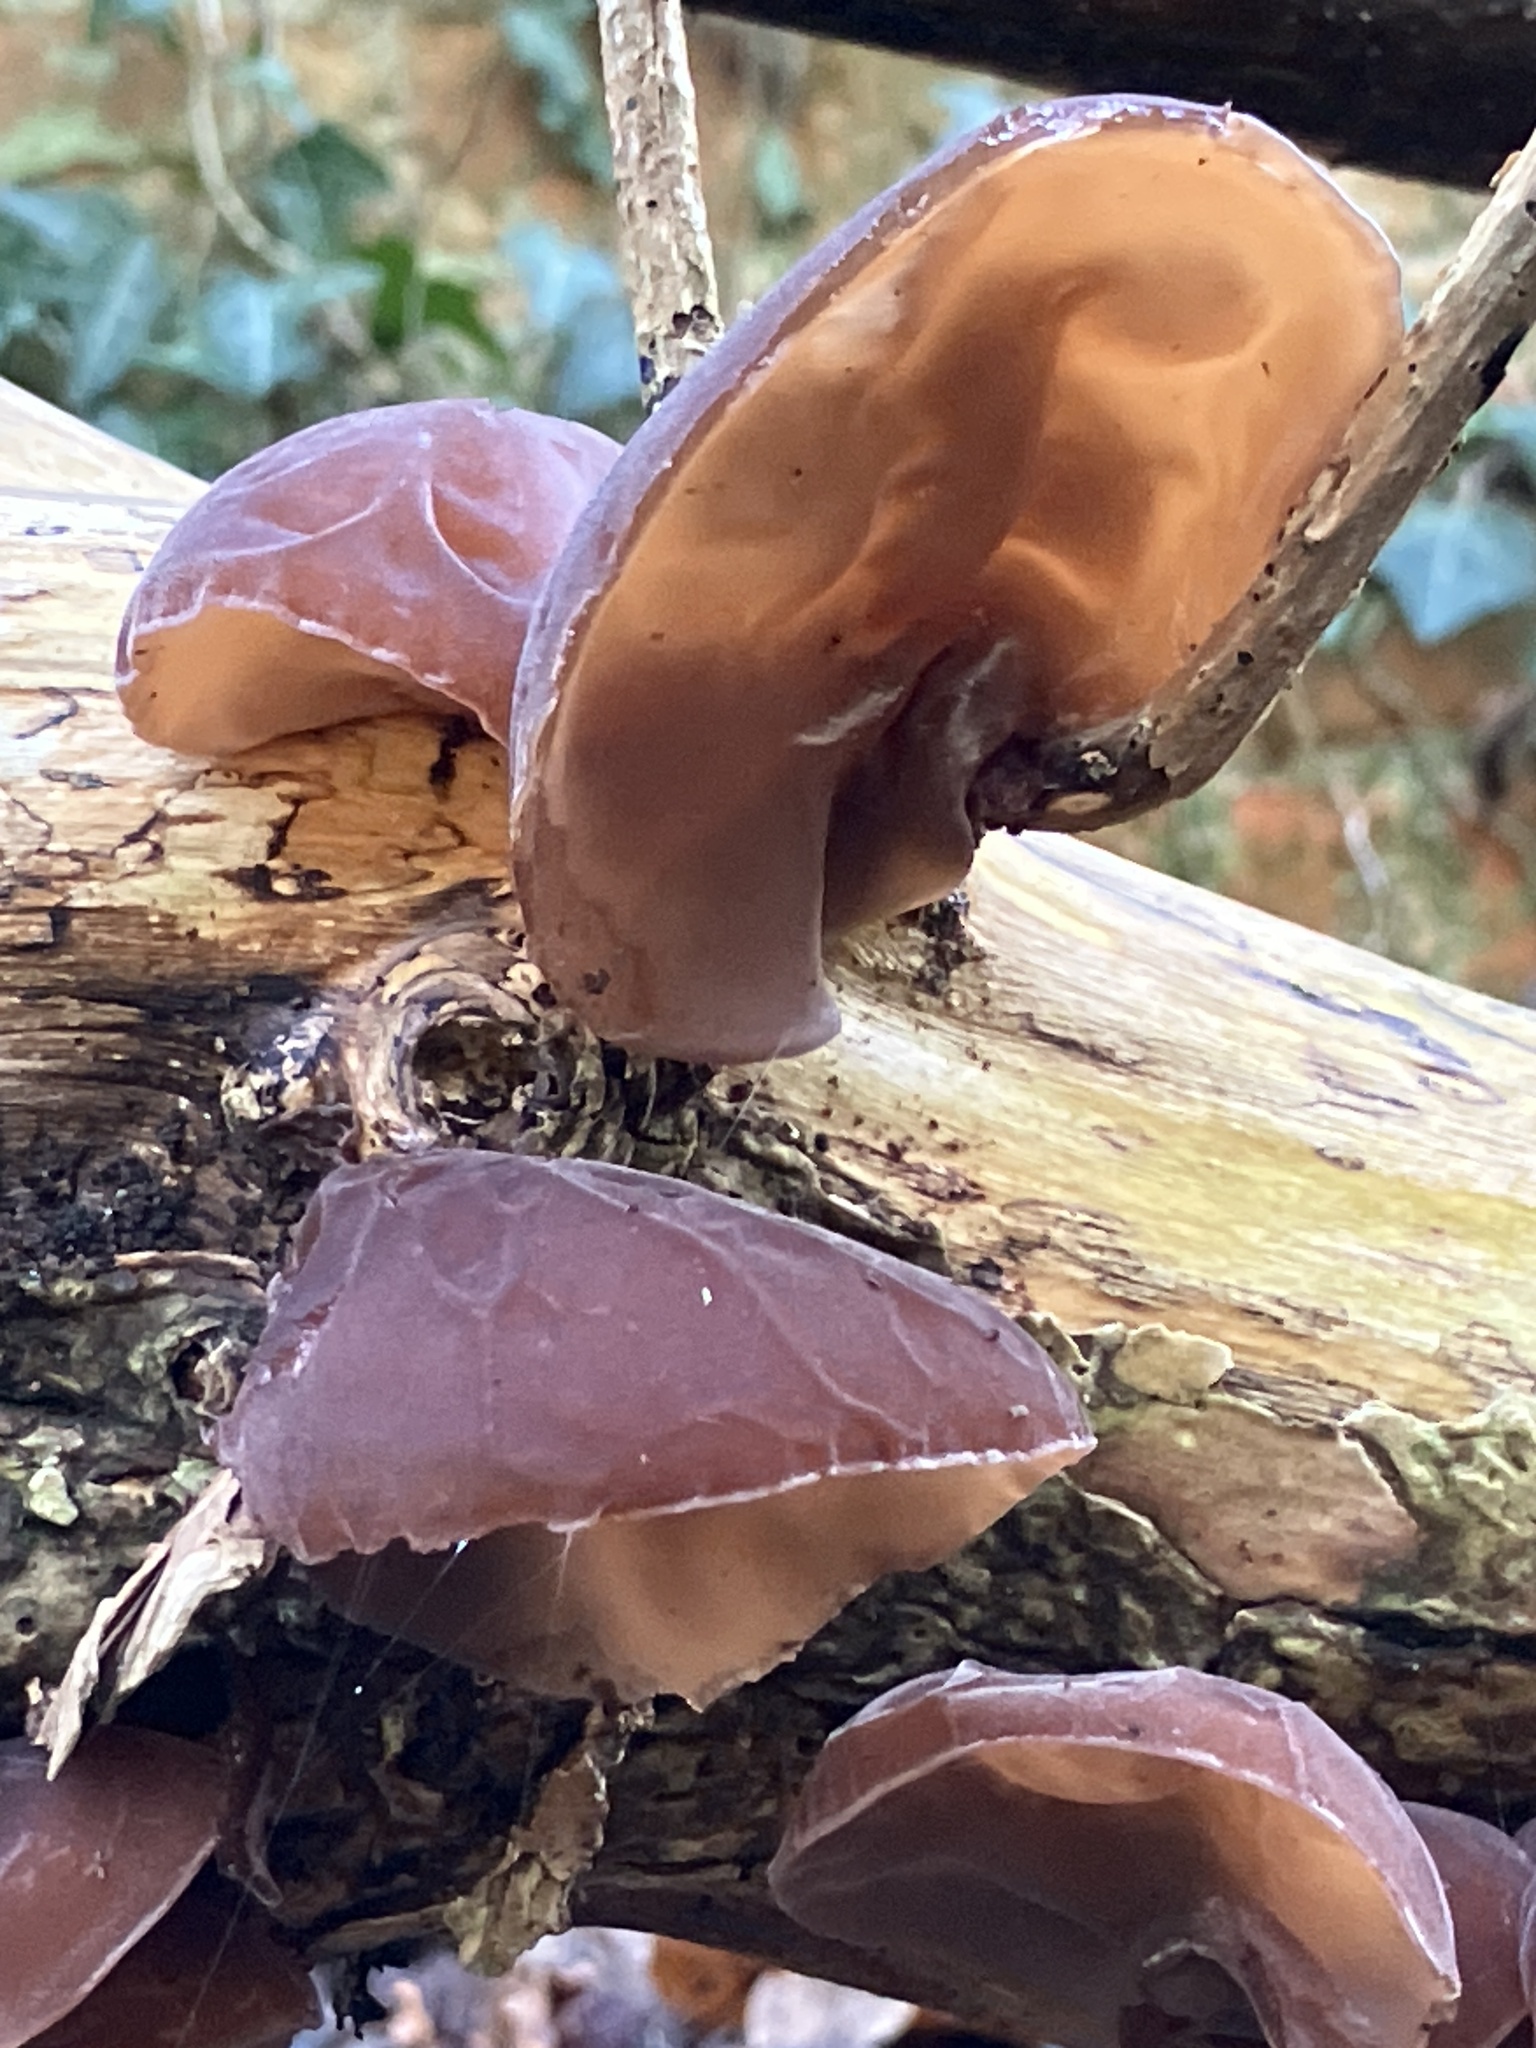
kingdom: Fungi
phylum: Basidiomycota
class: Agaricomycetes
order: Auriculariales
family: Auriculariaceae
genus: Auricularia
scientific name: Auricularia auricula-judae
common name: Jelly ear
